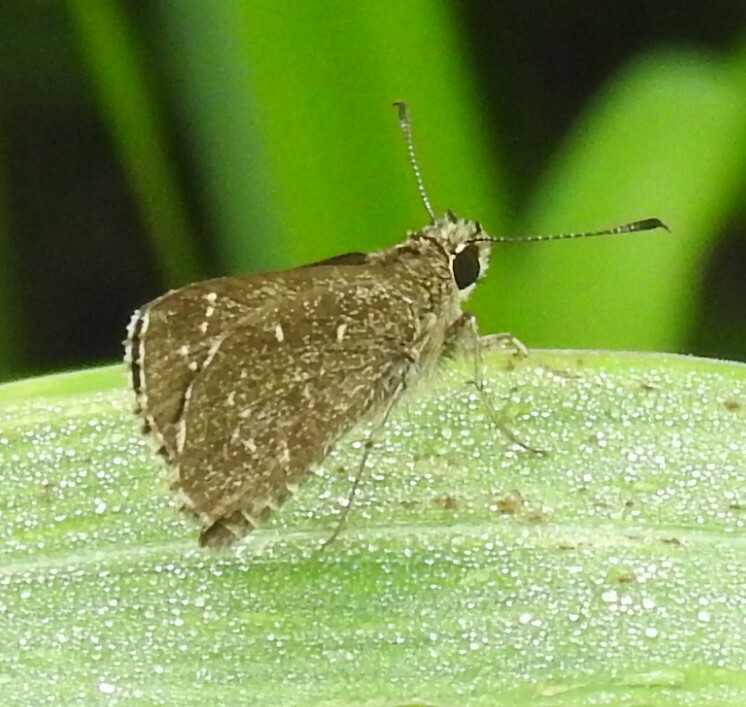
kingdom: Animalia
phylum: Arthropoda
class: Insecta
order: Lepidoptera
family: Hesperiidae
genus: Mastor
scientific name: Mastor celia
